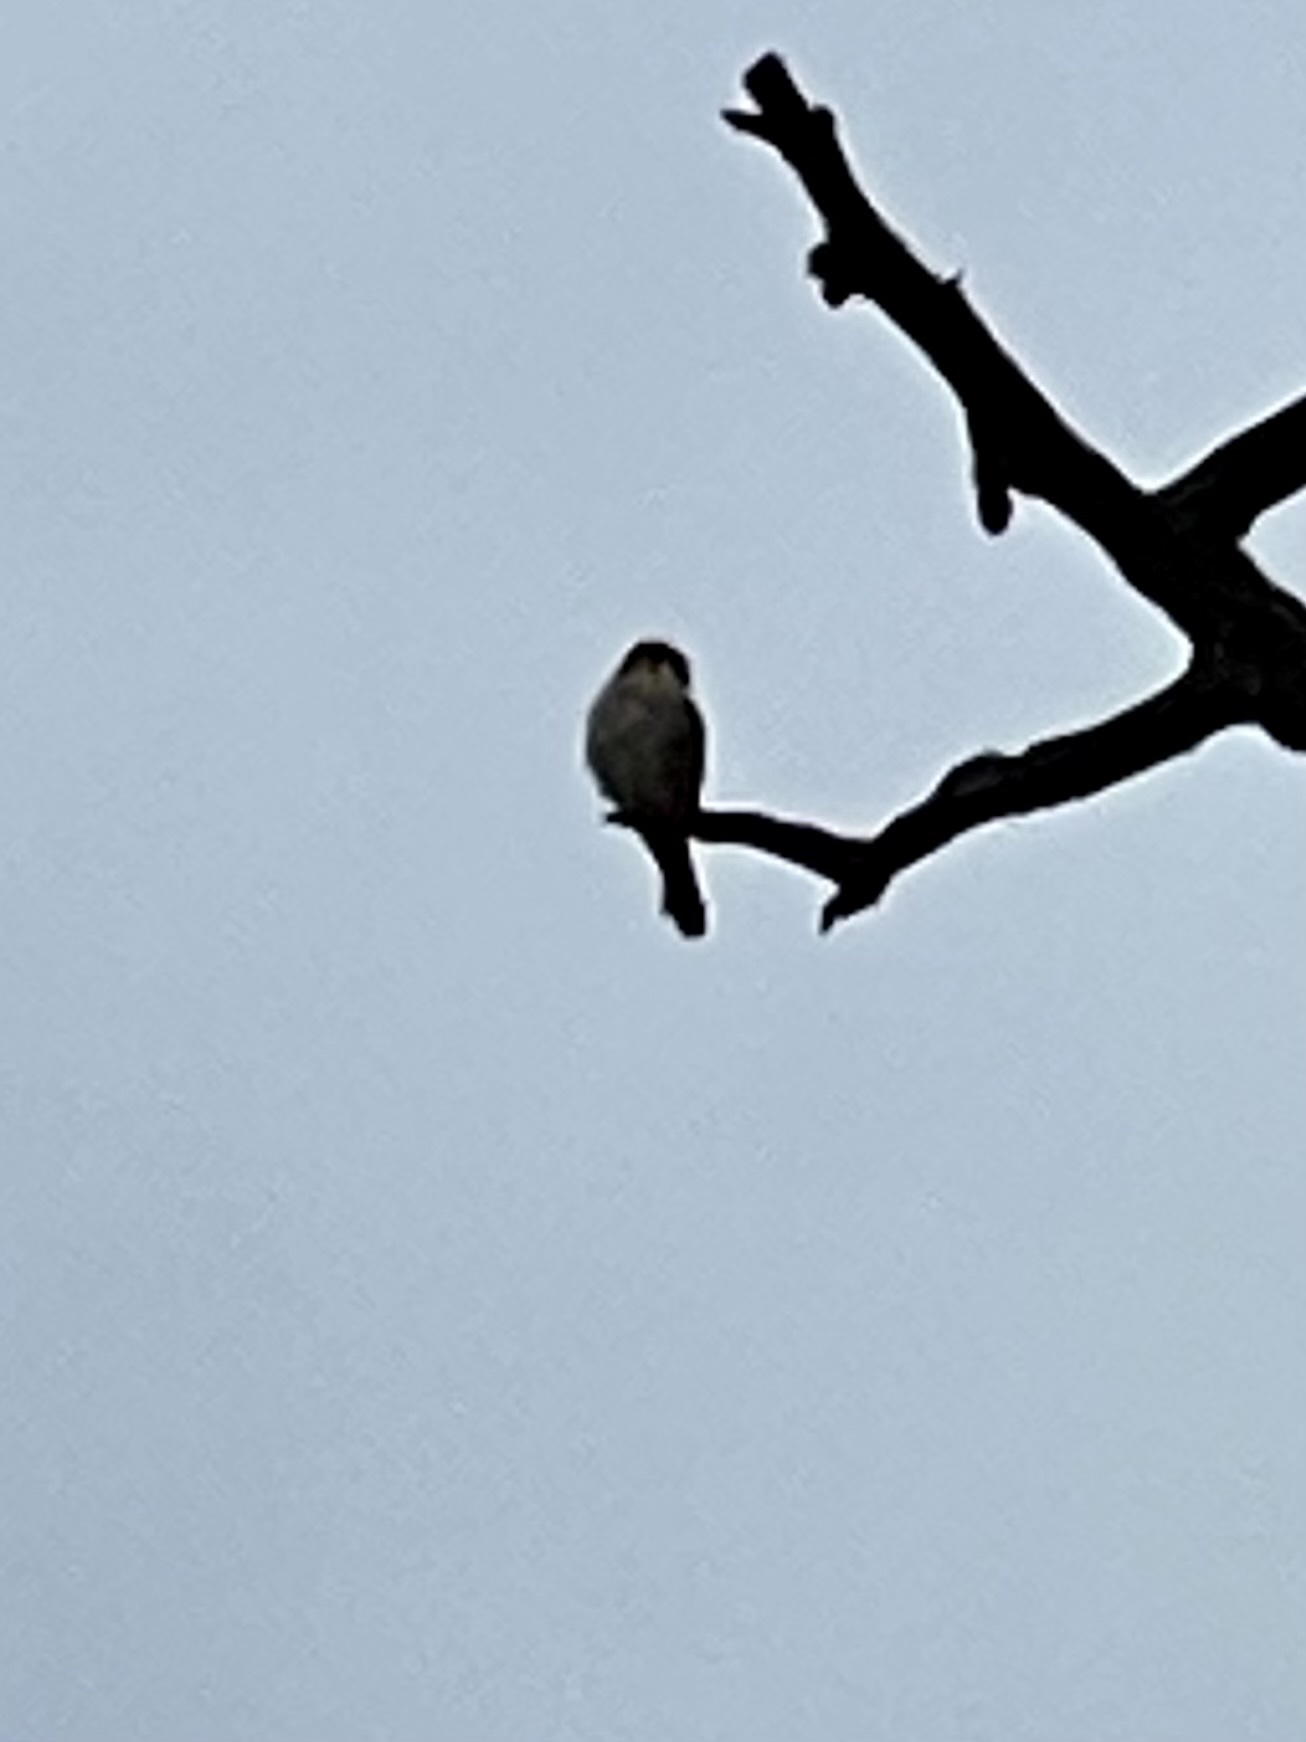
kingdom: Animalia
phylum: Chordata
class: Aves
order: Falconiformes
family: Falconidae
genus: Falco
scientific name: Falco sparverius
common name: American kestrel
